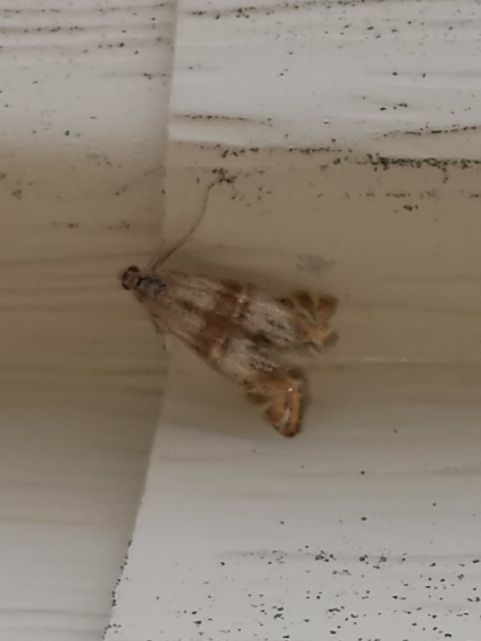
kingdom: Animalia
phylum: Arthropoda
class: Insecta
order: Lepidoptera
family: Crambidae
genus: Petrophila
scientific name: Petrophila bifascialis
